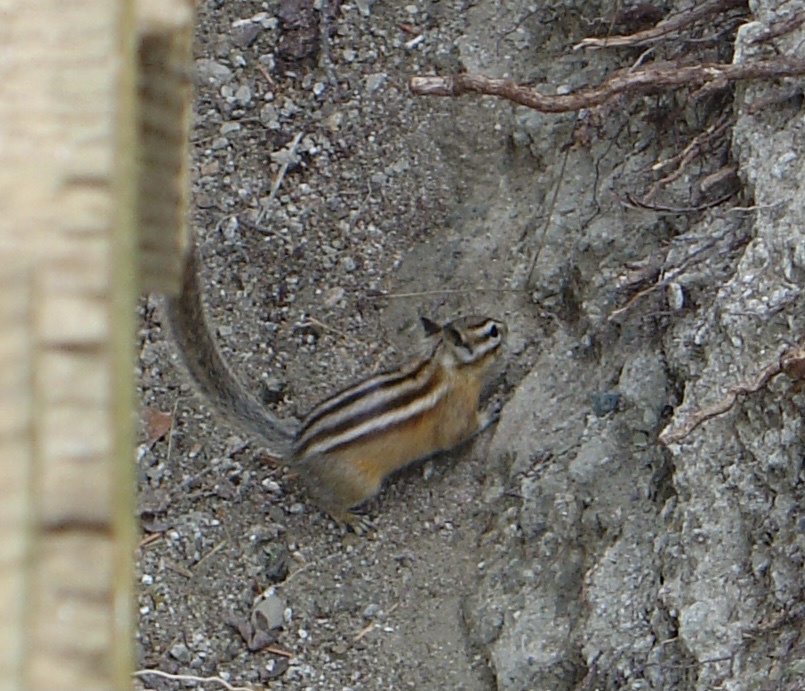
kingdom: Animalia
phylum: Chordata
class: Mammalia
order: Rodentia
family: Sciuridae
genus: Tamias
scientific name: Tamias amoenus
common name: Yellow-pine chipmunk
